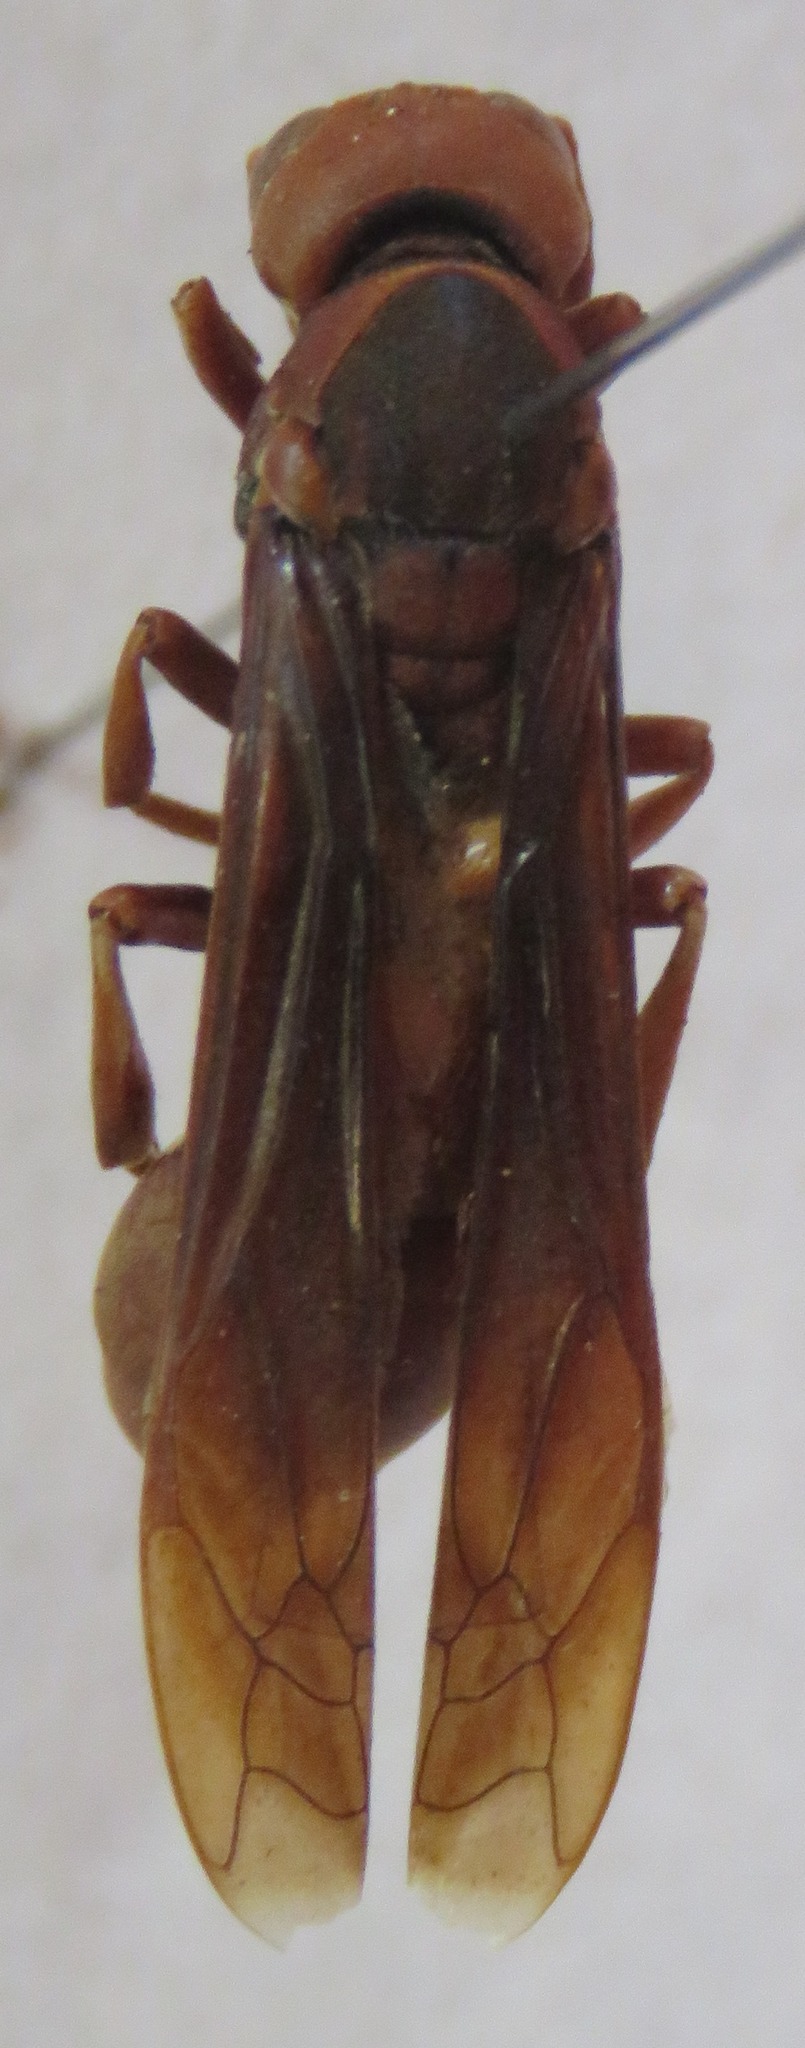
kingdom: Animalia
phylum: Arthropoda
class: Insecta
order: Hymenoptera
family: Eumenidae
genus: Montezumia
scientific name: Montezumia ferruginea
